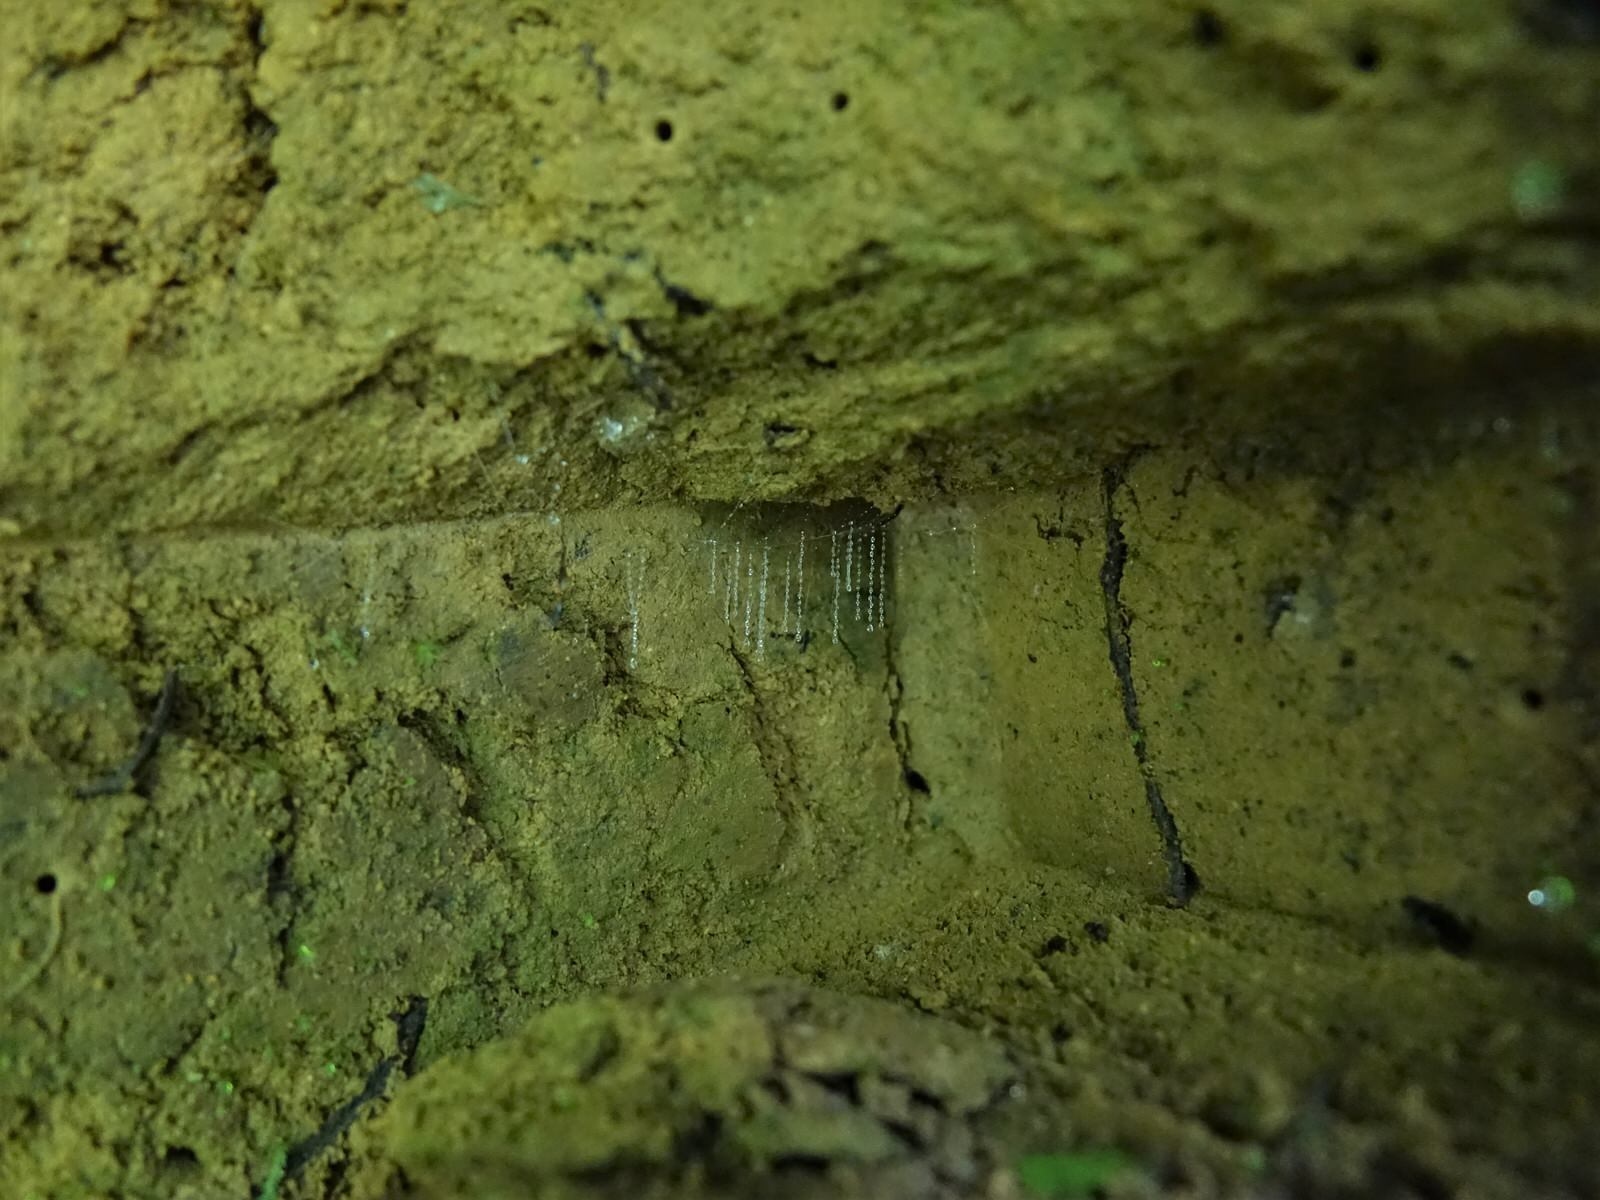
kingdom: Animalia
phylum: Arthropoda
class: Insecta
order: Diptera
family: Keroplatidae
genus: Arachnocampa
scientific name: Arachnocampa luminosa
